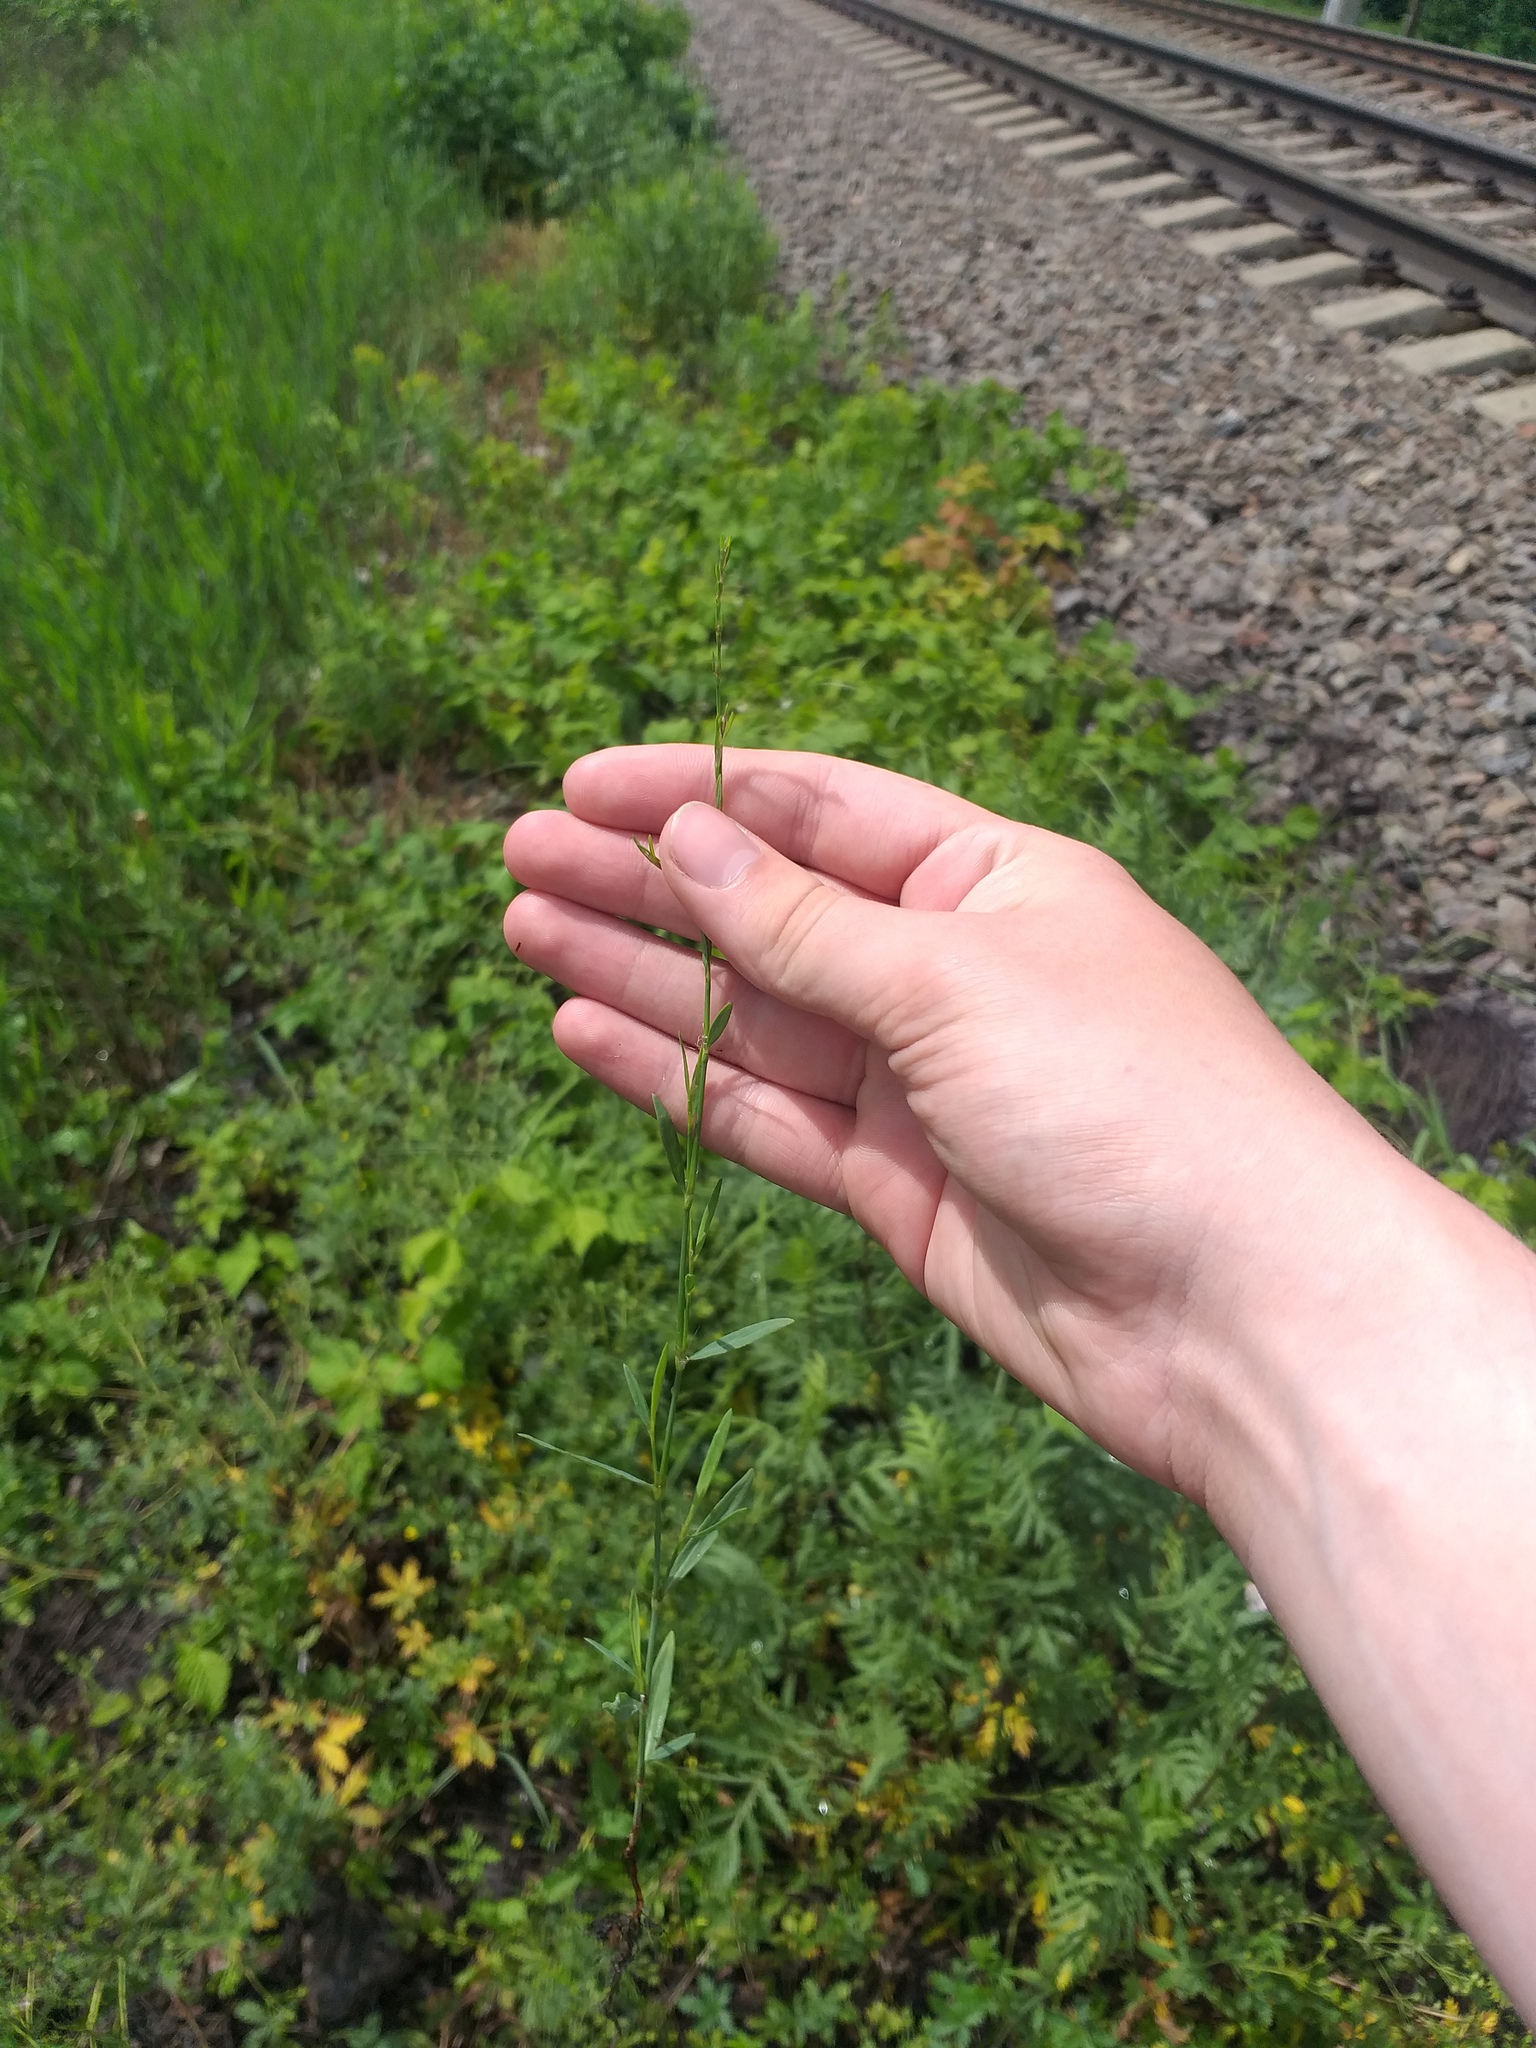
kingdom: Plantae
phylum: Tracheophyta
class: Magnoliopsida
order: Caryophyllales
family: Polygonaceae
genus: Polygonum
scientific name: Polygonum
